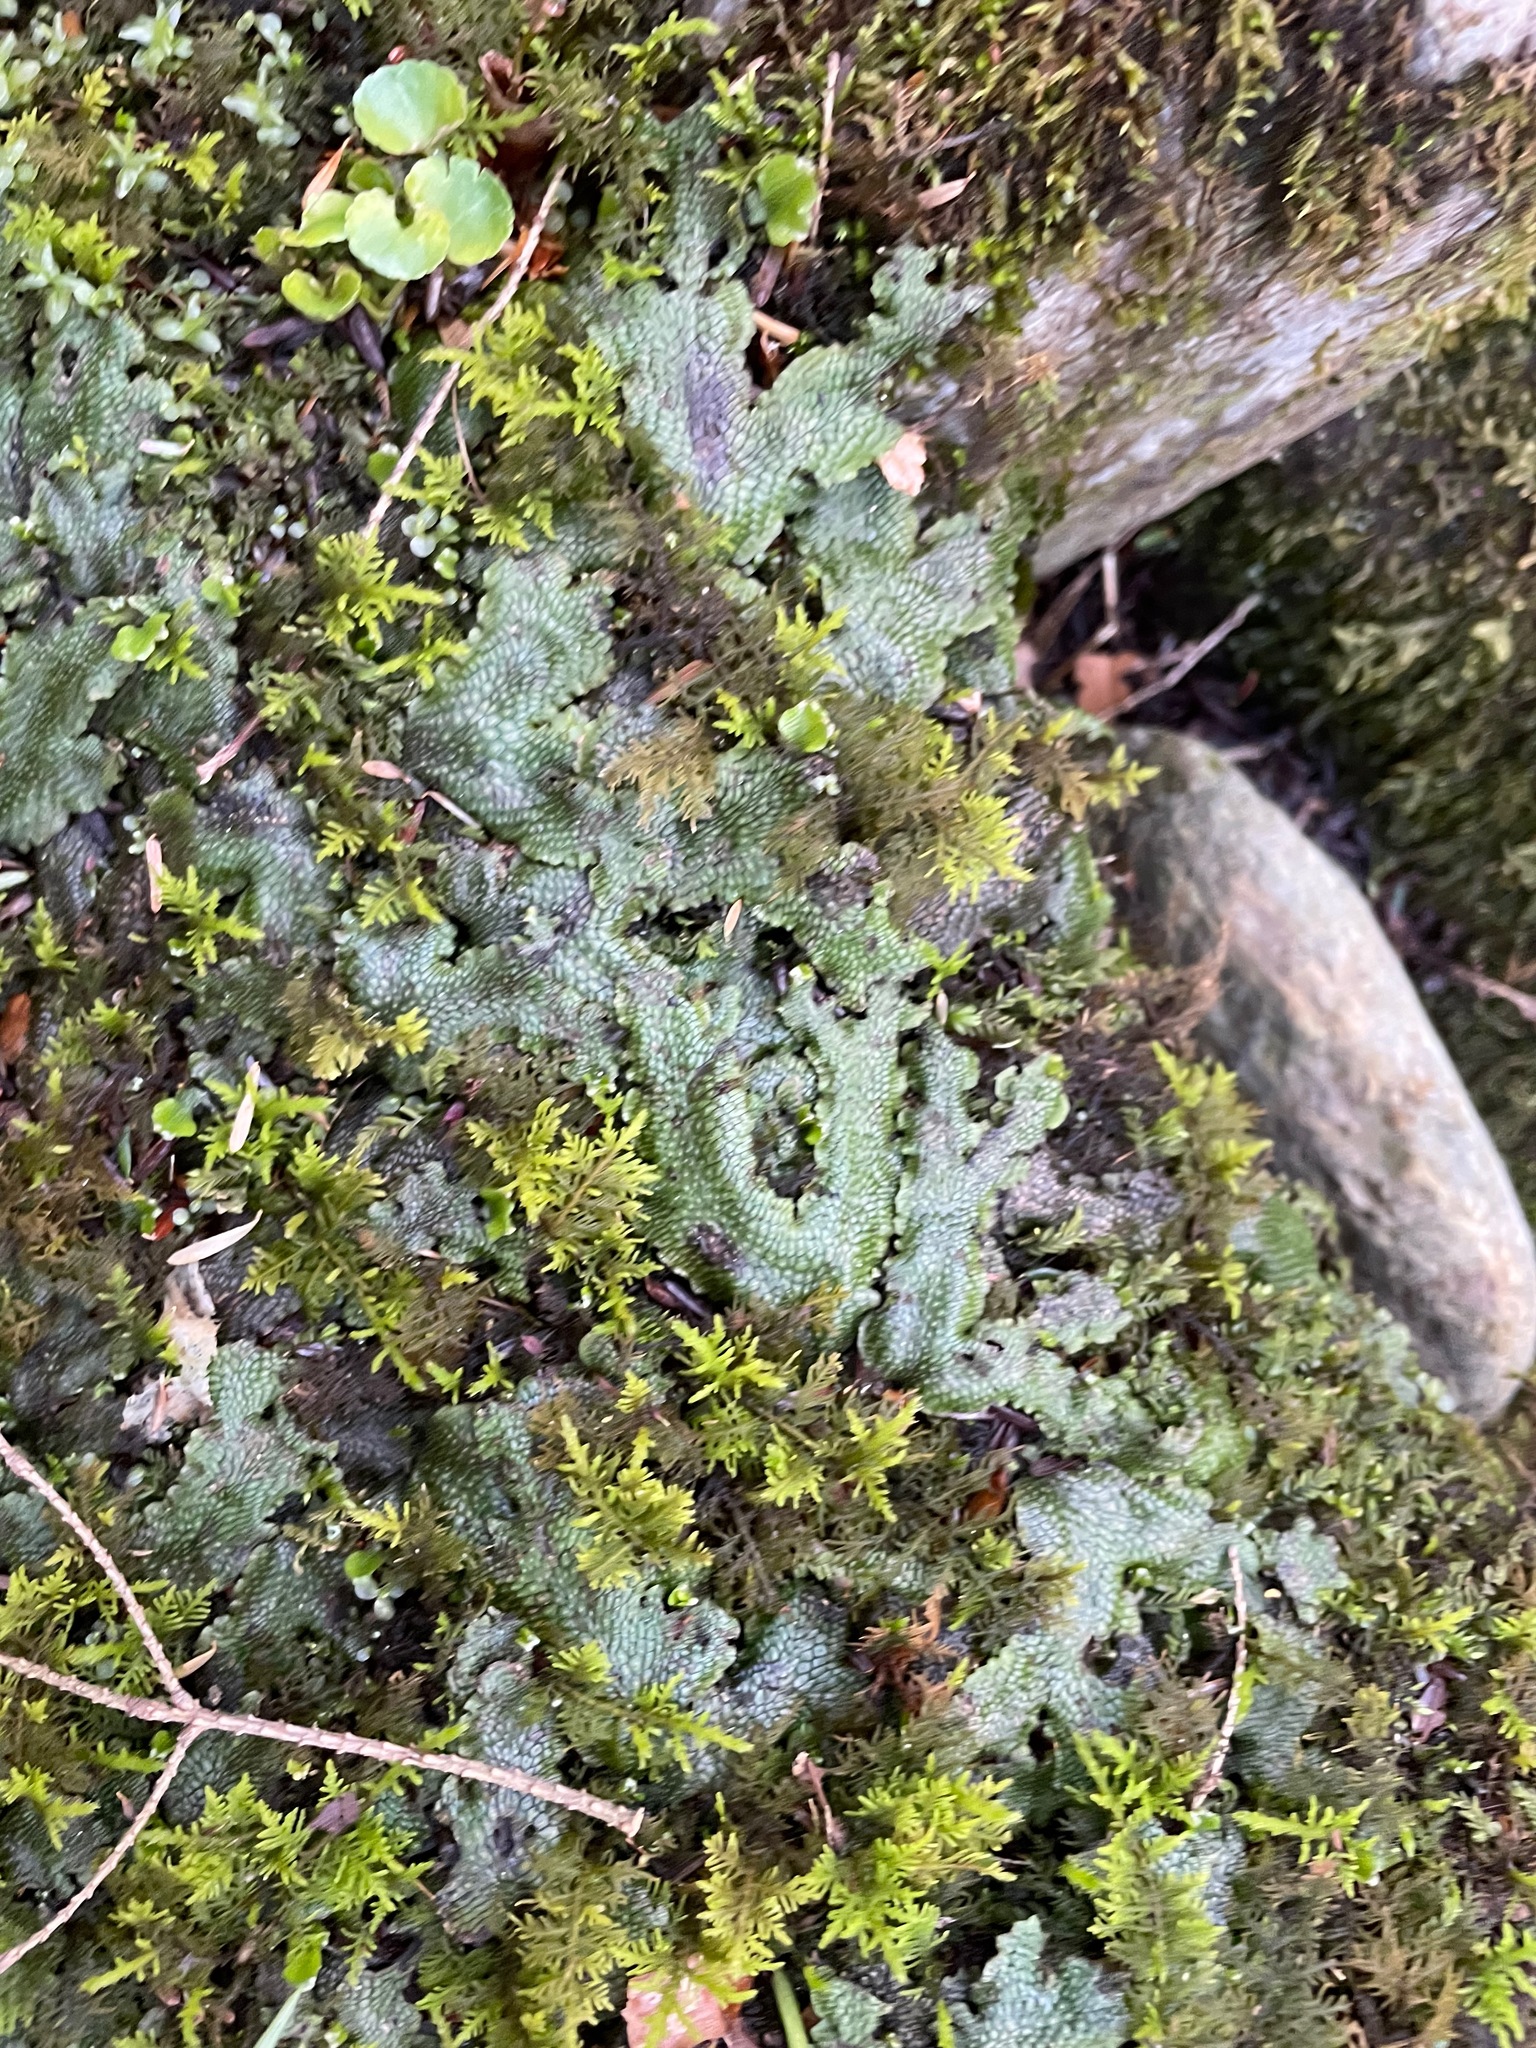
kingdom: Plantae
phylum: Marchantiophyta
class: Marchantiopsida
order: Marchantiales
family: Conocephalaceae
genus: Conocephalum
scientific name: Conocephalum salebrosum
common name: Cat-tongue liverwort
